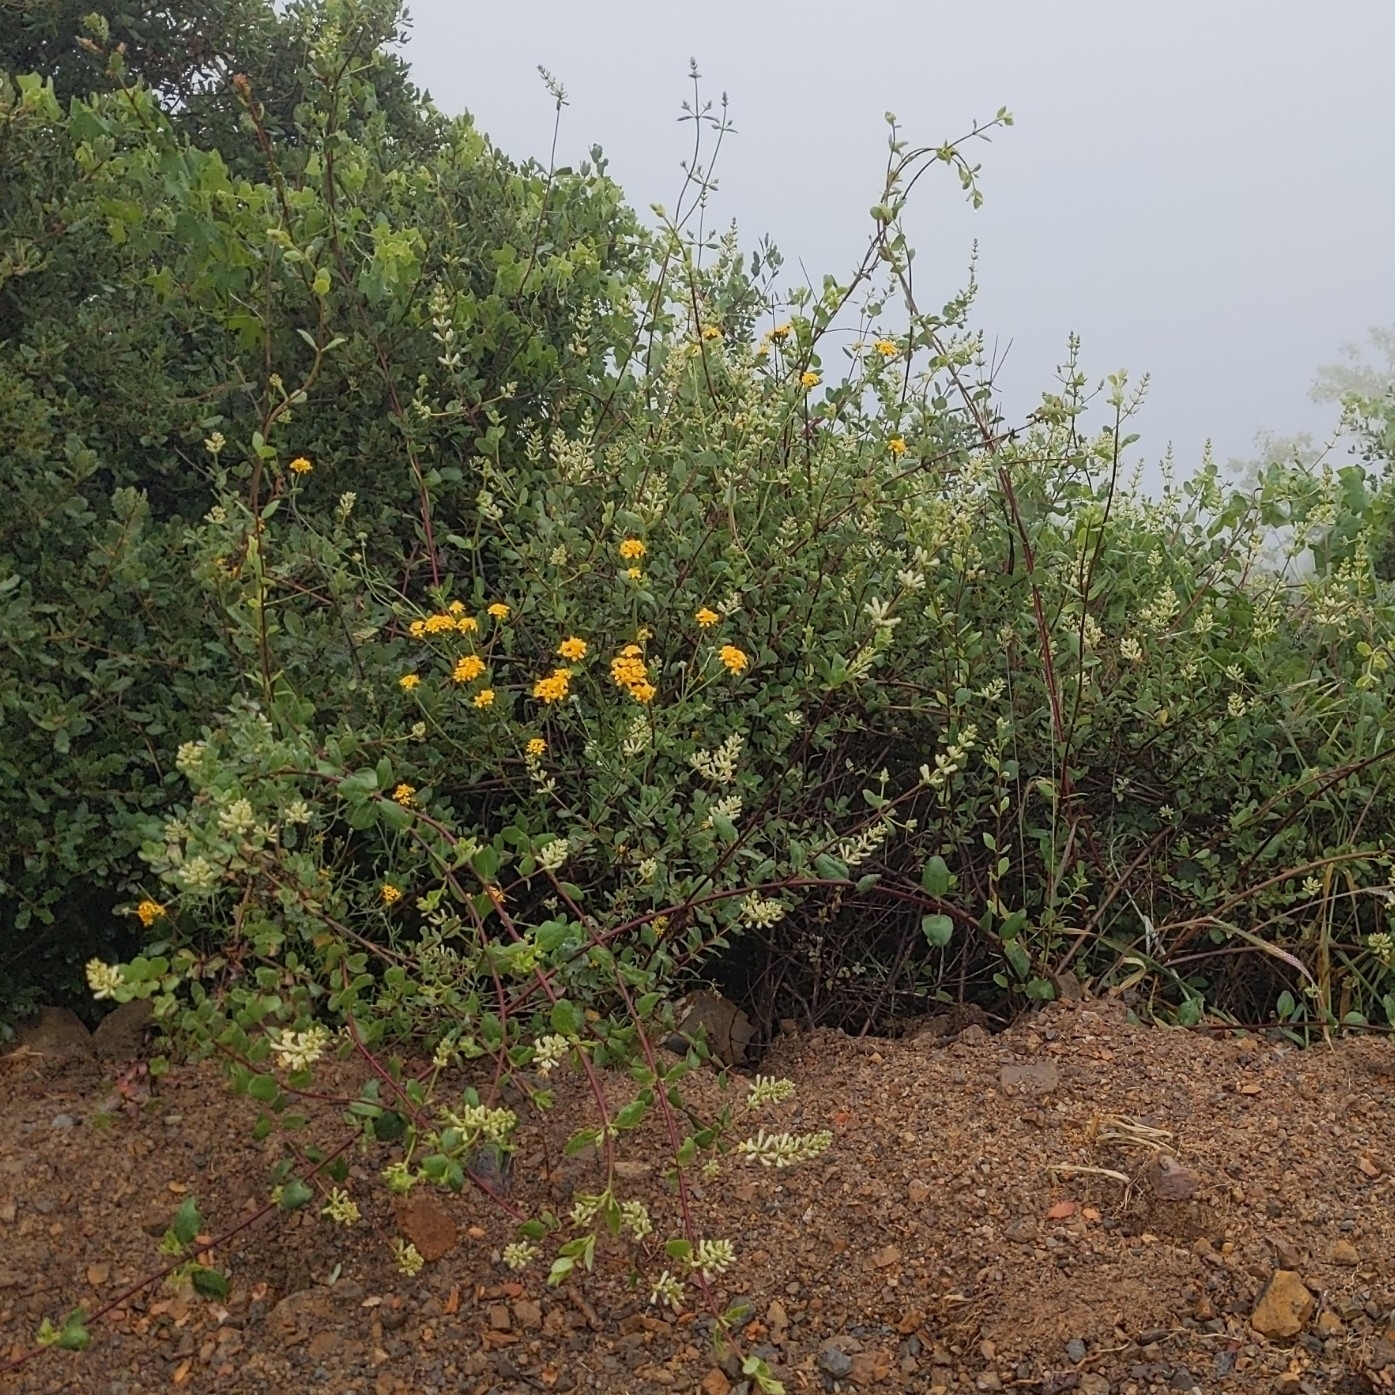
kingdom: Plantae
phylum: Tracheophyta
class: Magnoliopsida
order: Dipsacales
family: Caprifoliaceae
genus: Lonicera
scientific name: Lonicera subspicata
